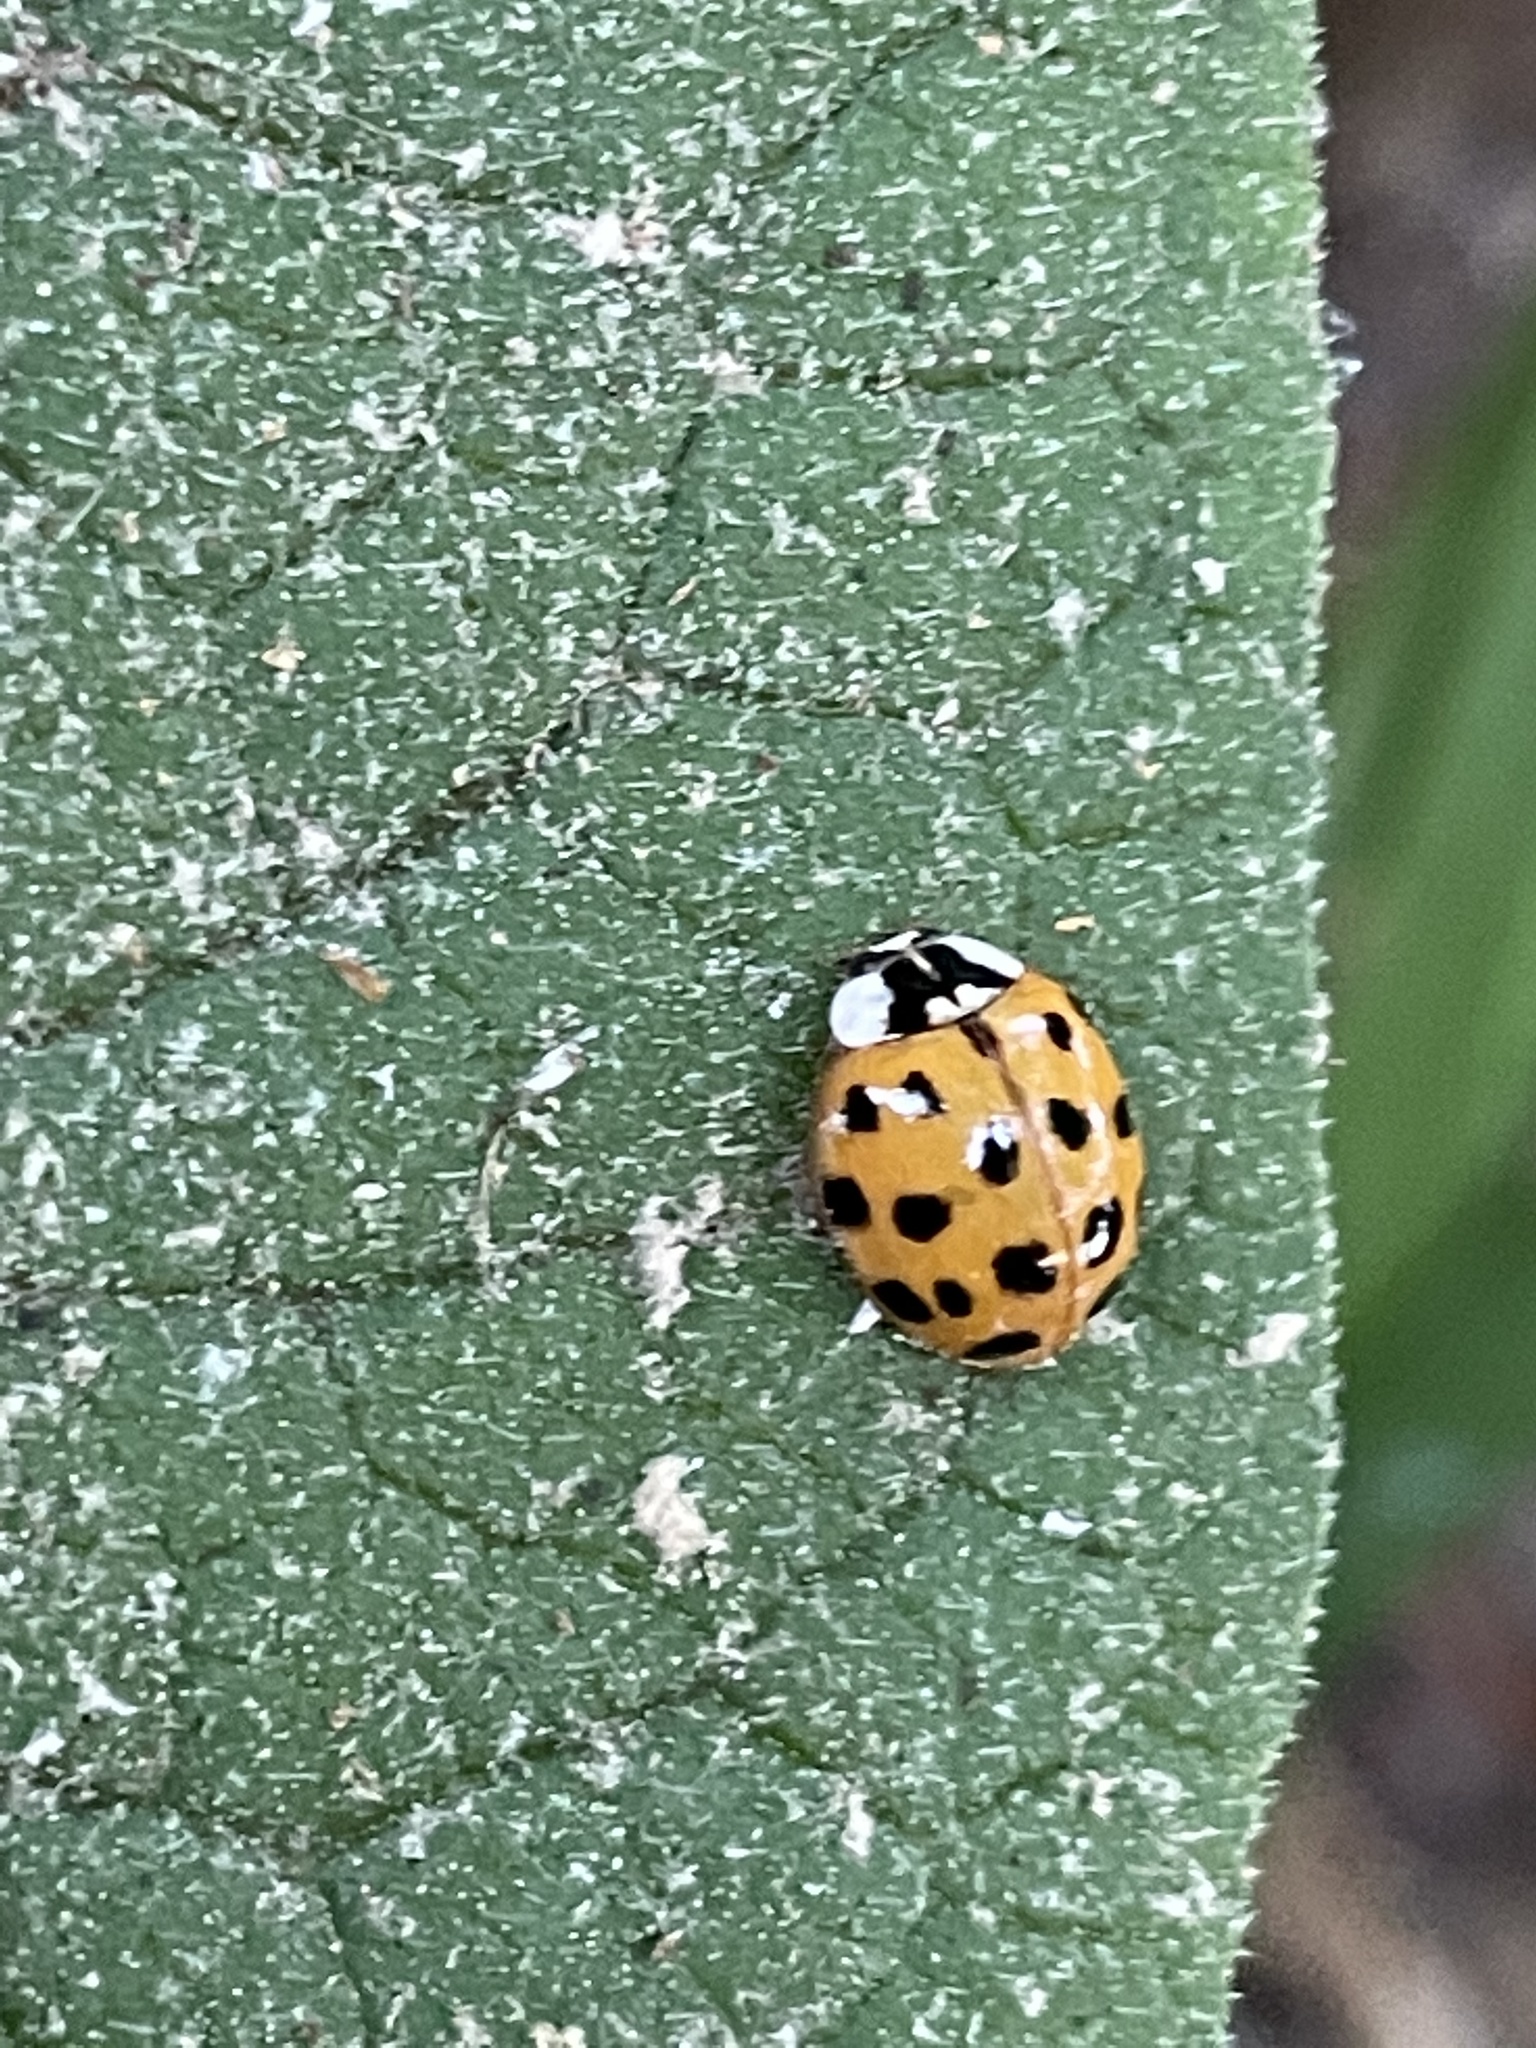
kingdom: Animalia
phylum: Arthropoda
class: Insecta
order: Coleoptera
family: Coccinellidae
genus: Harmonia
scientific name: Harmonia axyridis
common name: Harlequin ladybird
